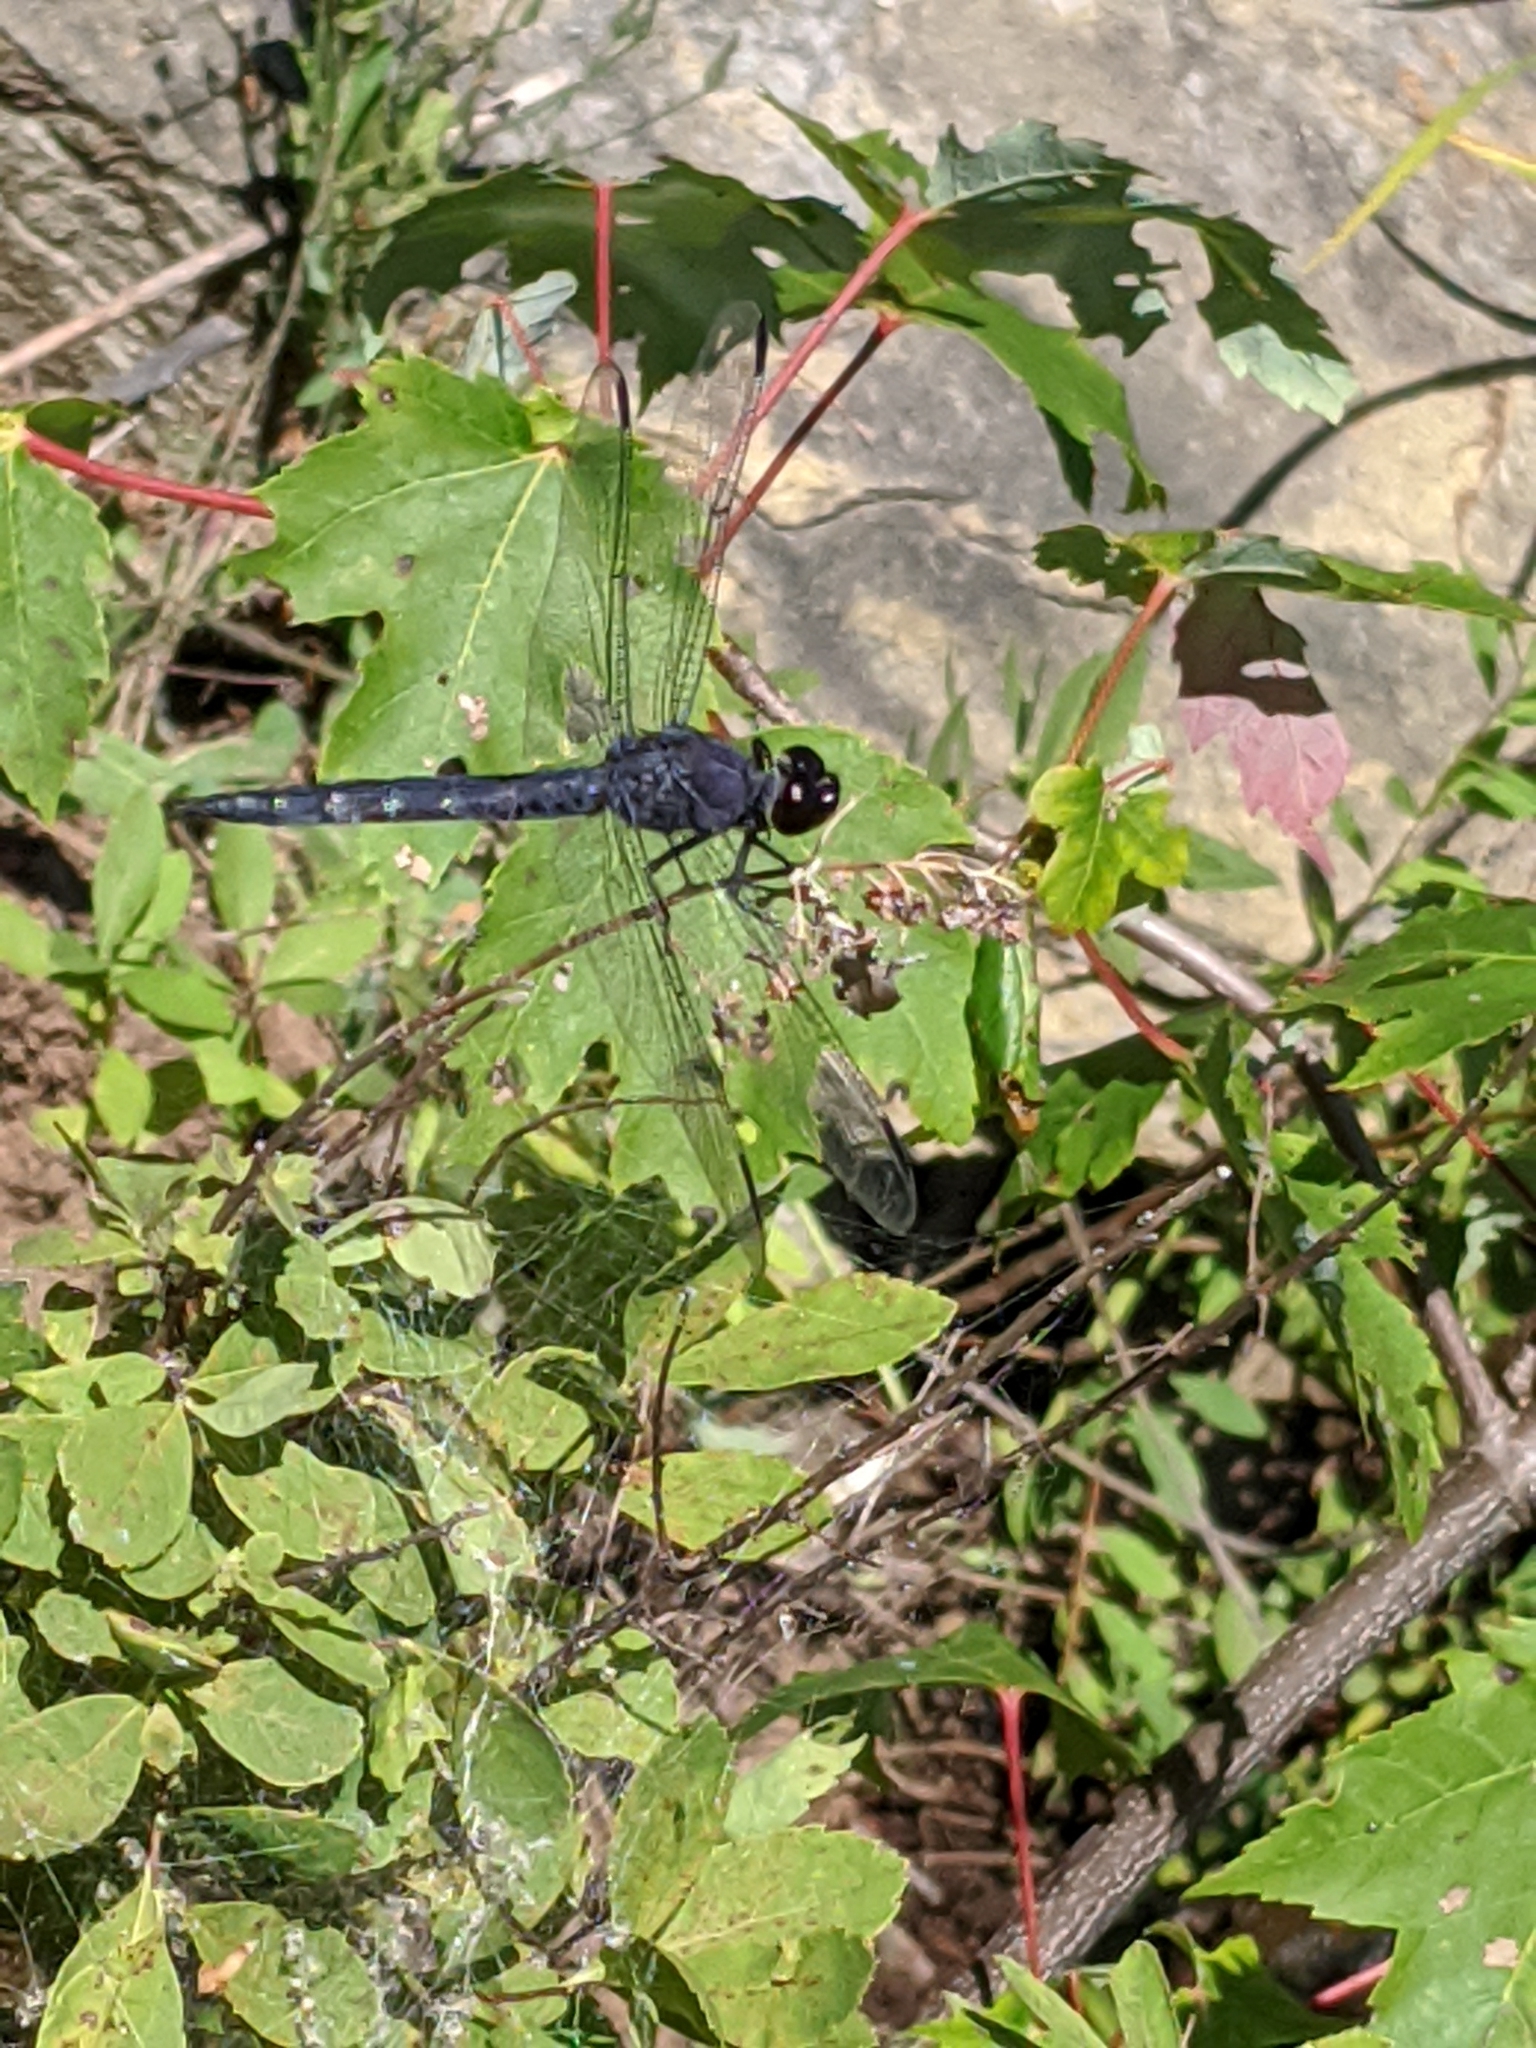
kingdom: Animalia
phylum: Arthropoda
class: Insecta
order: Odonata
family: Libellulidae
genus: Libellula
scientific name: Libellula incesta
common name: Slaty skimmer
